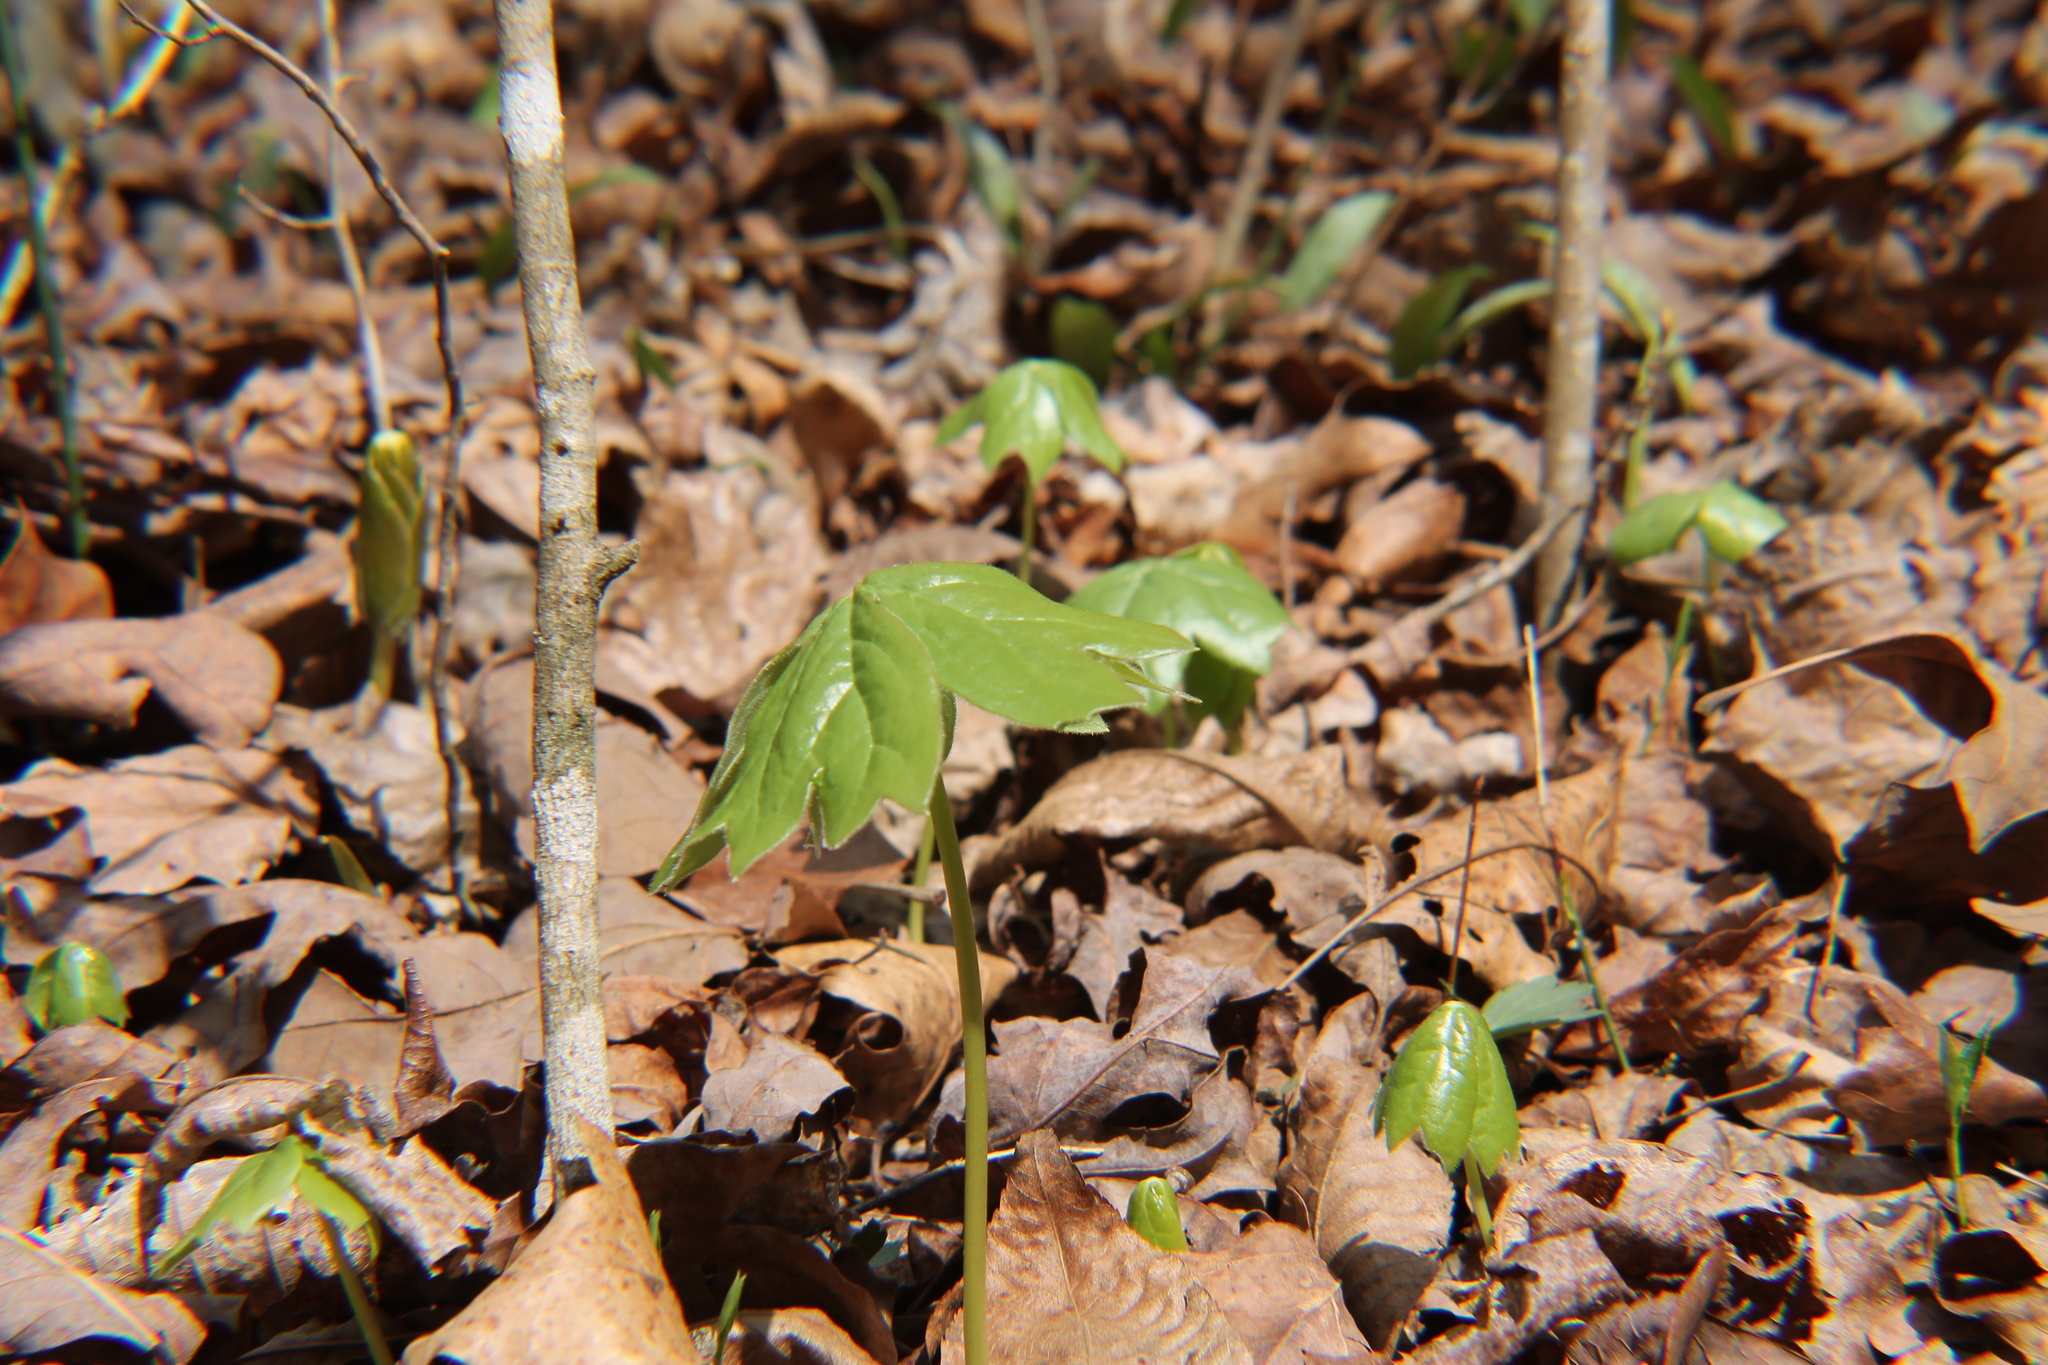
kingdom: Plantae
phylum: Tracheophyta
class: Magnoliopsida
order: Ranunculales
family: Berberidaceae
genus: Podophyllum
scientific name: Podophyllum peltatum
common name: Wild mandrake
